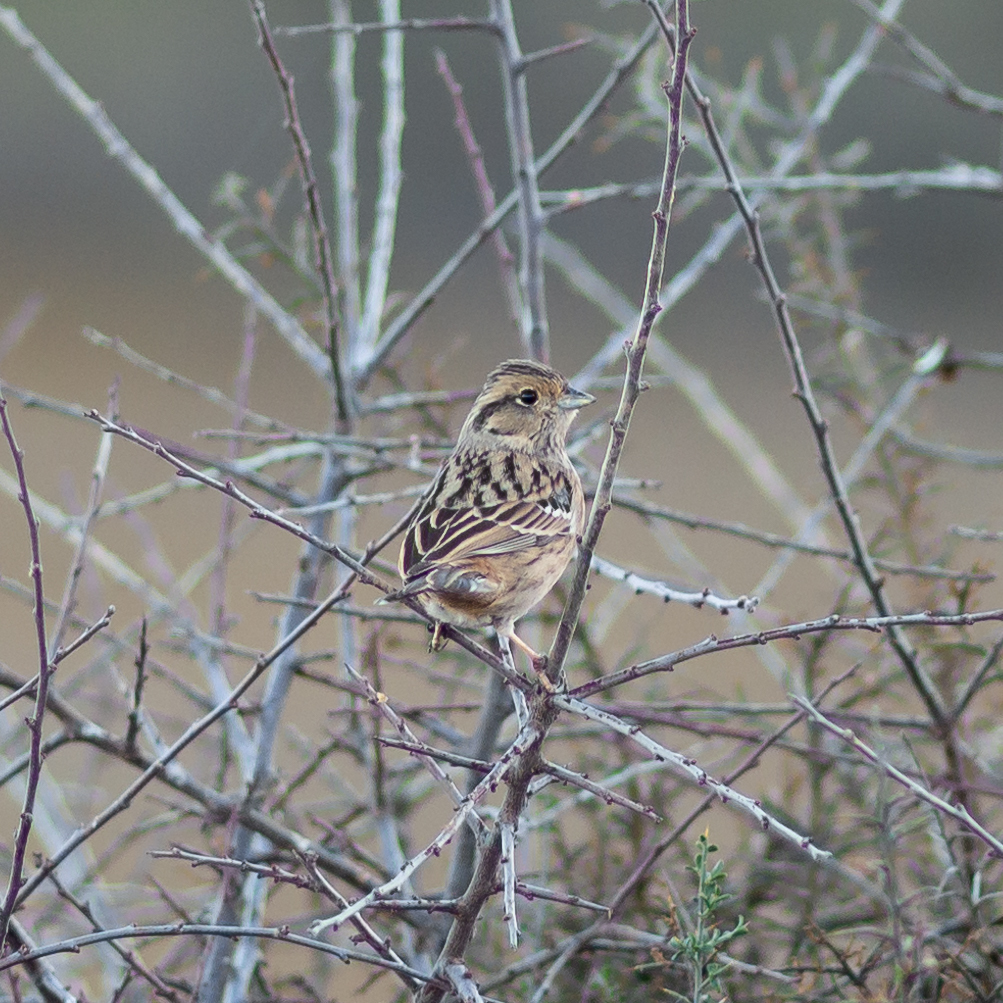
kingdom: Animalia
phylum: Chordata
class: Aves
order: Passeriformes
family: Emberizidae
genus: Emberiza
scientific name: Emberiza cia
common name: Rock bunting
